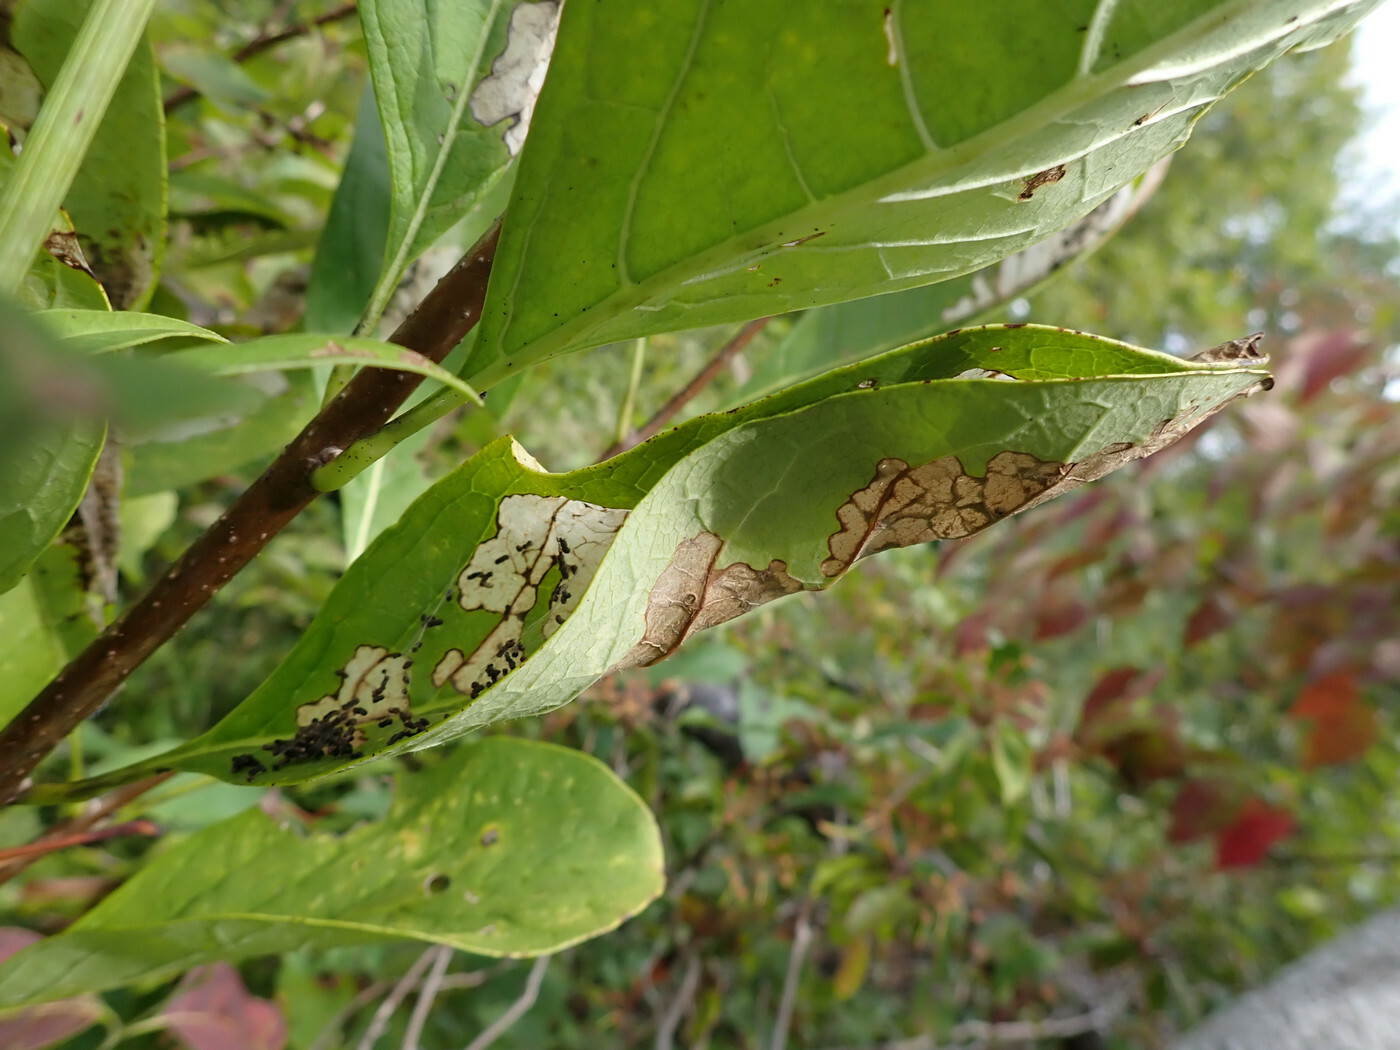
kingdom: Animalia
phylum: Arthropoda
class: Insecta
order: Lepidoptera
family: Crambidae
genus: Palpita
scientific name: Palpita illibalis
